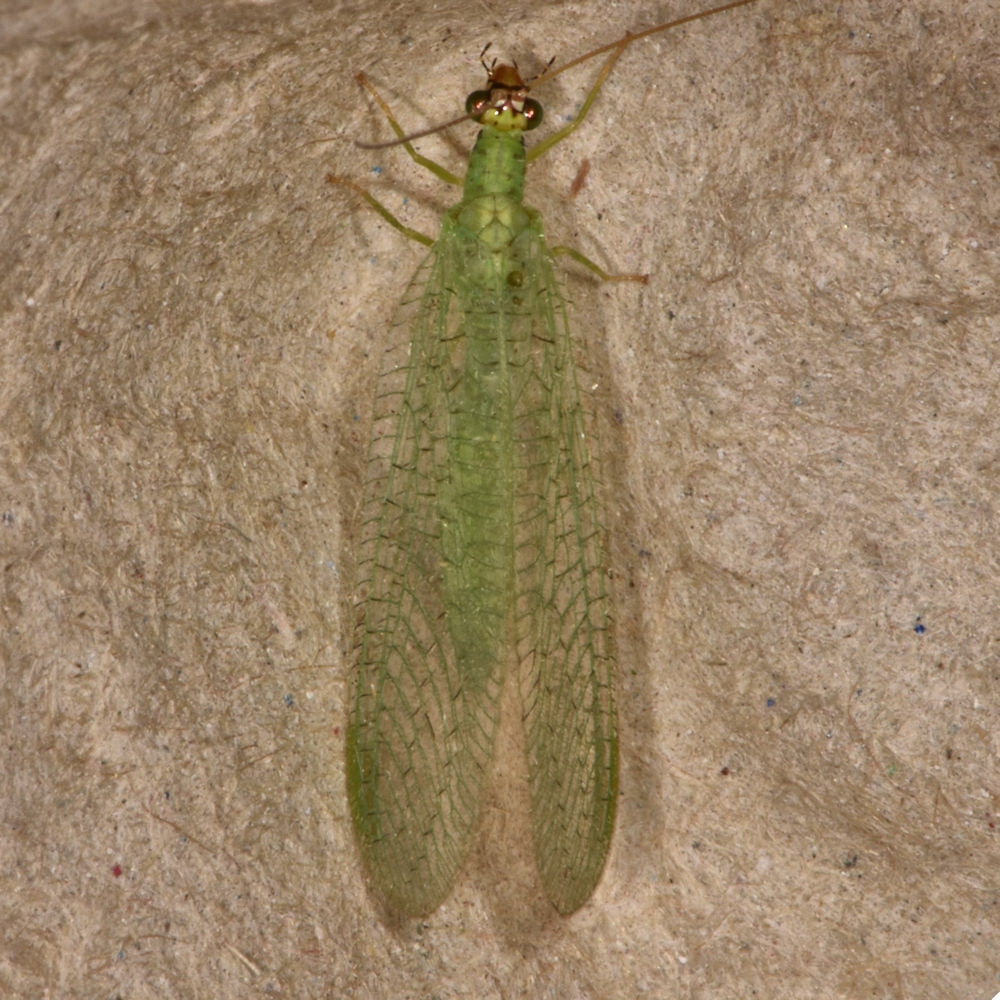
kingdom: Animalia
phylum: Arthropoda
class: Insecta
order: Neuroptera
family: Chrysopidae
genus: Chrysopa
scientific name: Chrysopa oculata
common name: Golden-eyed lacewing
